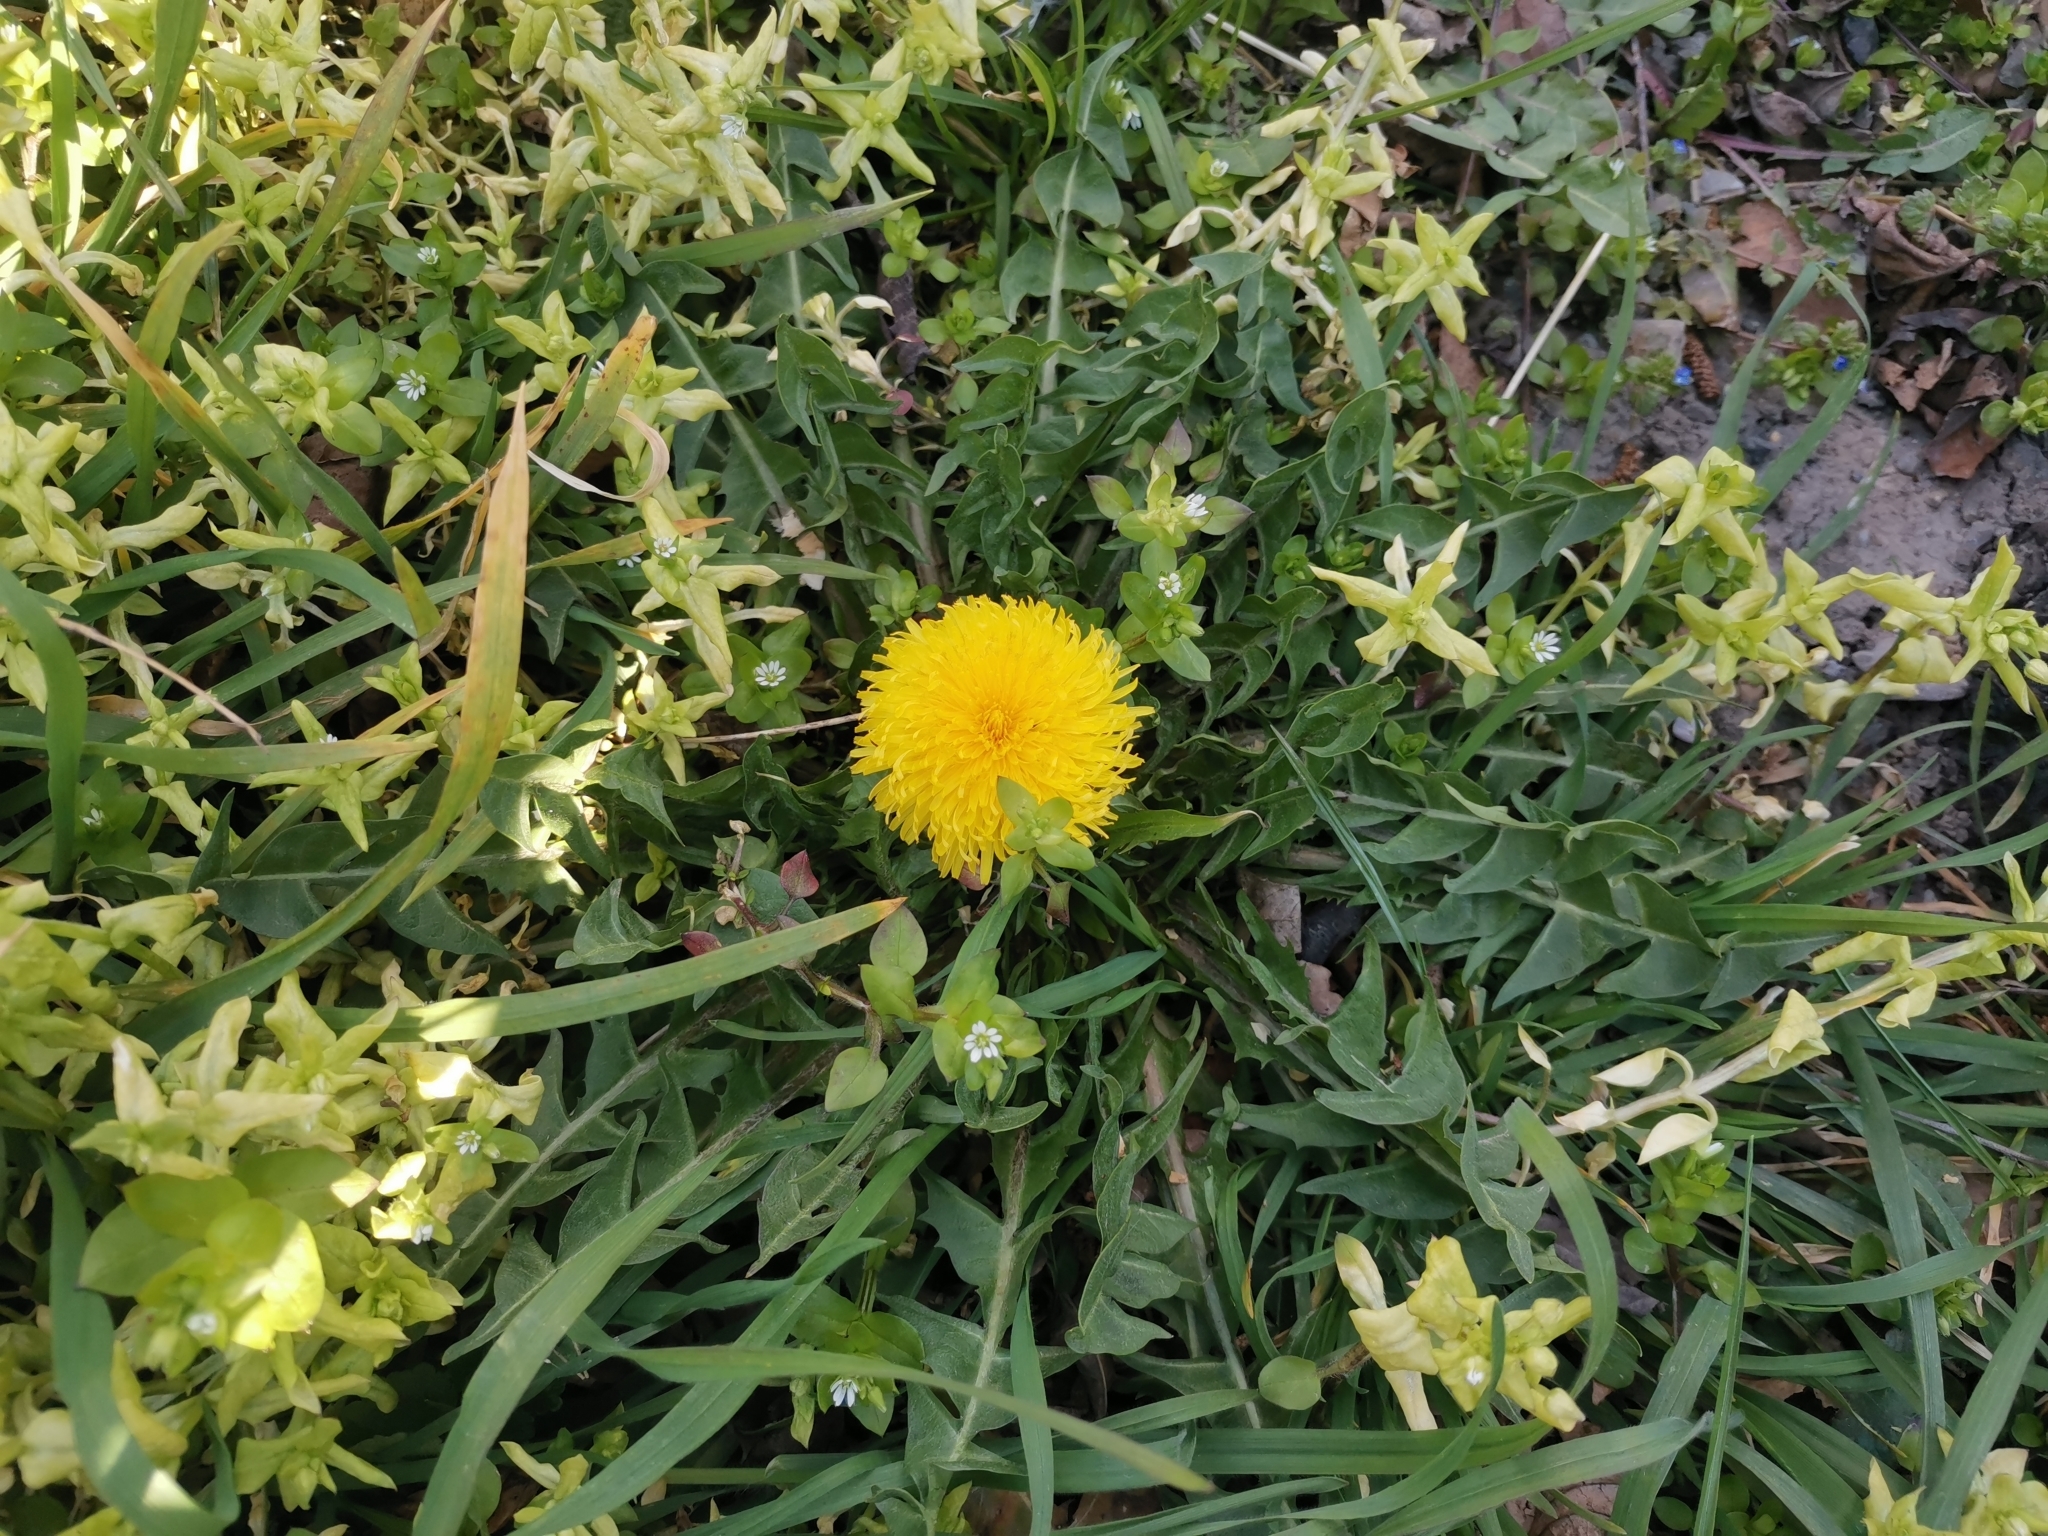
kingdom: Plantae
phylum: Tracheophyta
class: Magnoliopsida
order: Asterales
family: Asteraceae
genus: Taraxacum
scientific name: Taraxacum officinale
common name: Common dandelion
